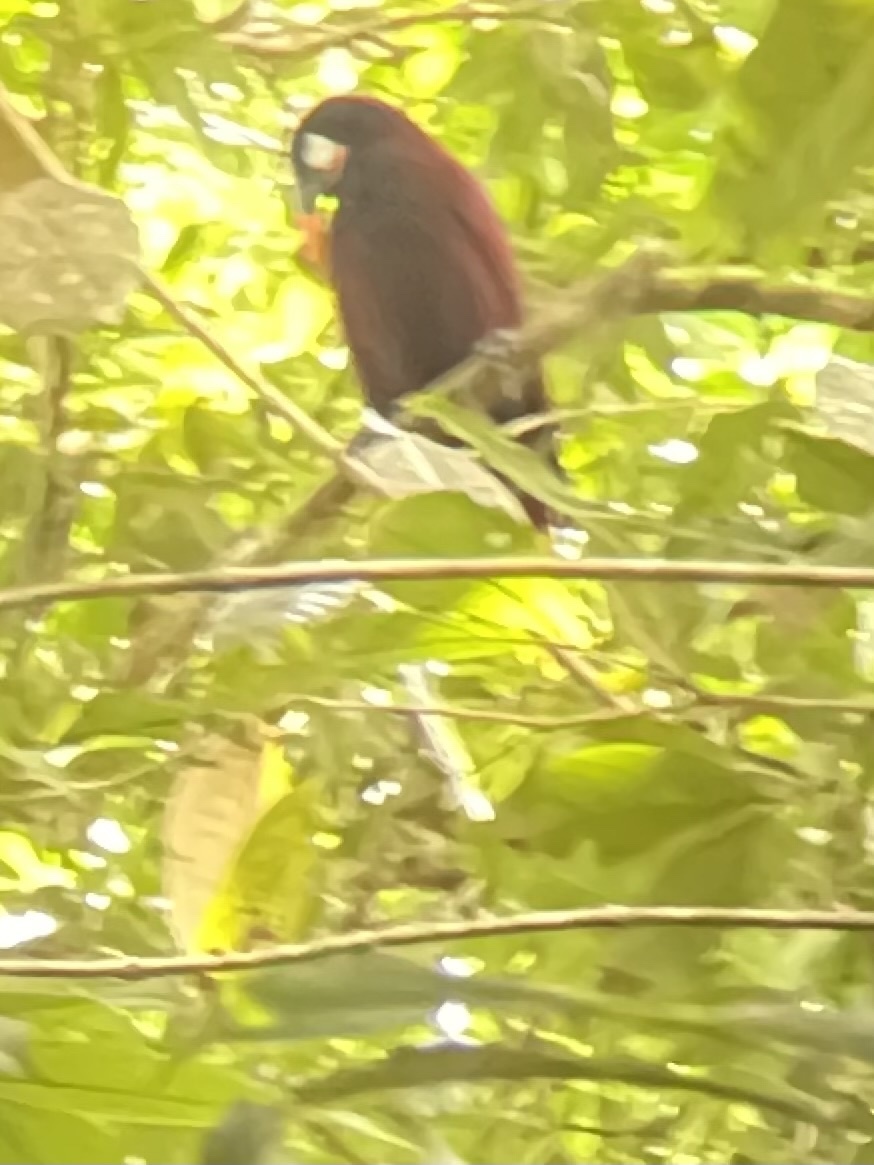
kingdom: Animalia
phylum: Chordata
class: Aves
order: Passeriformes
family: Icteridae
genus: Psarocolius
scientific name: Psarocolius montezuma
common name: Montezuma oropendola
